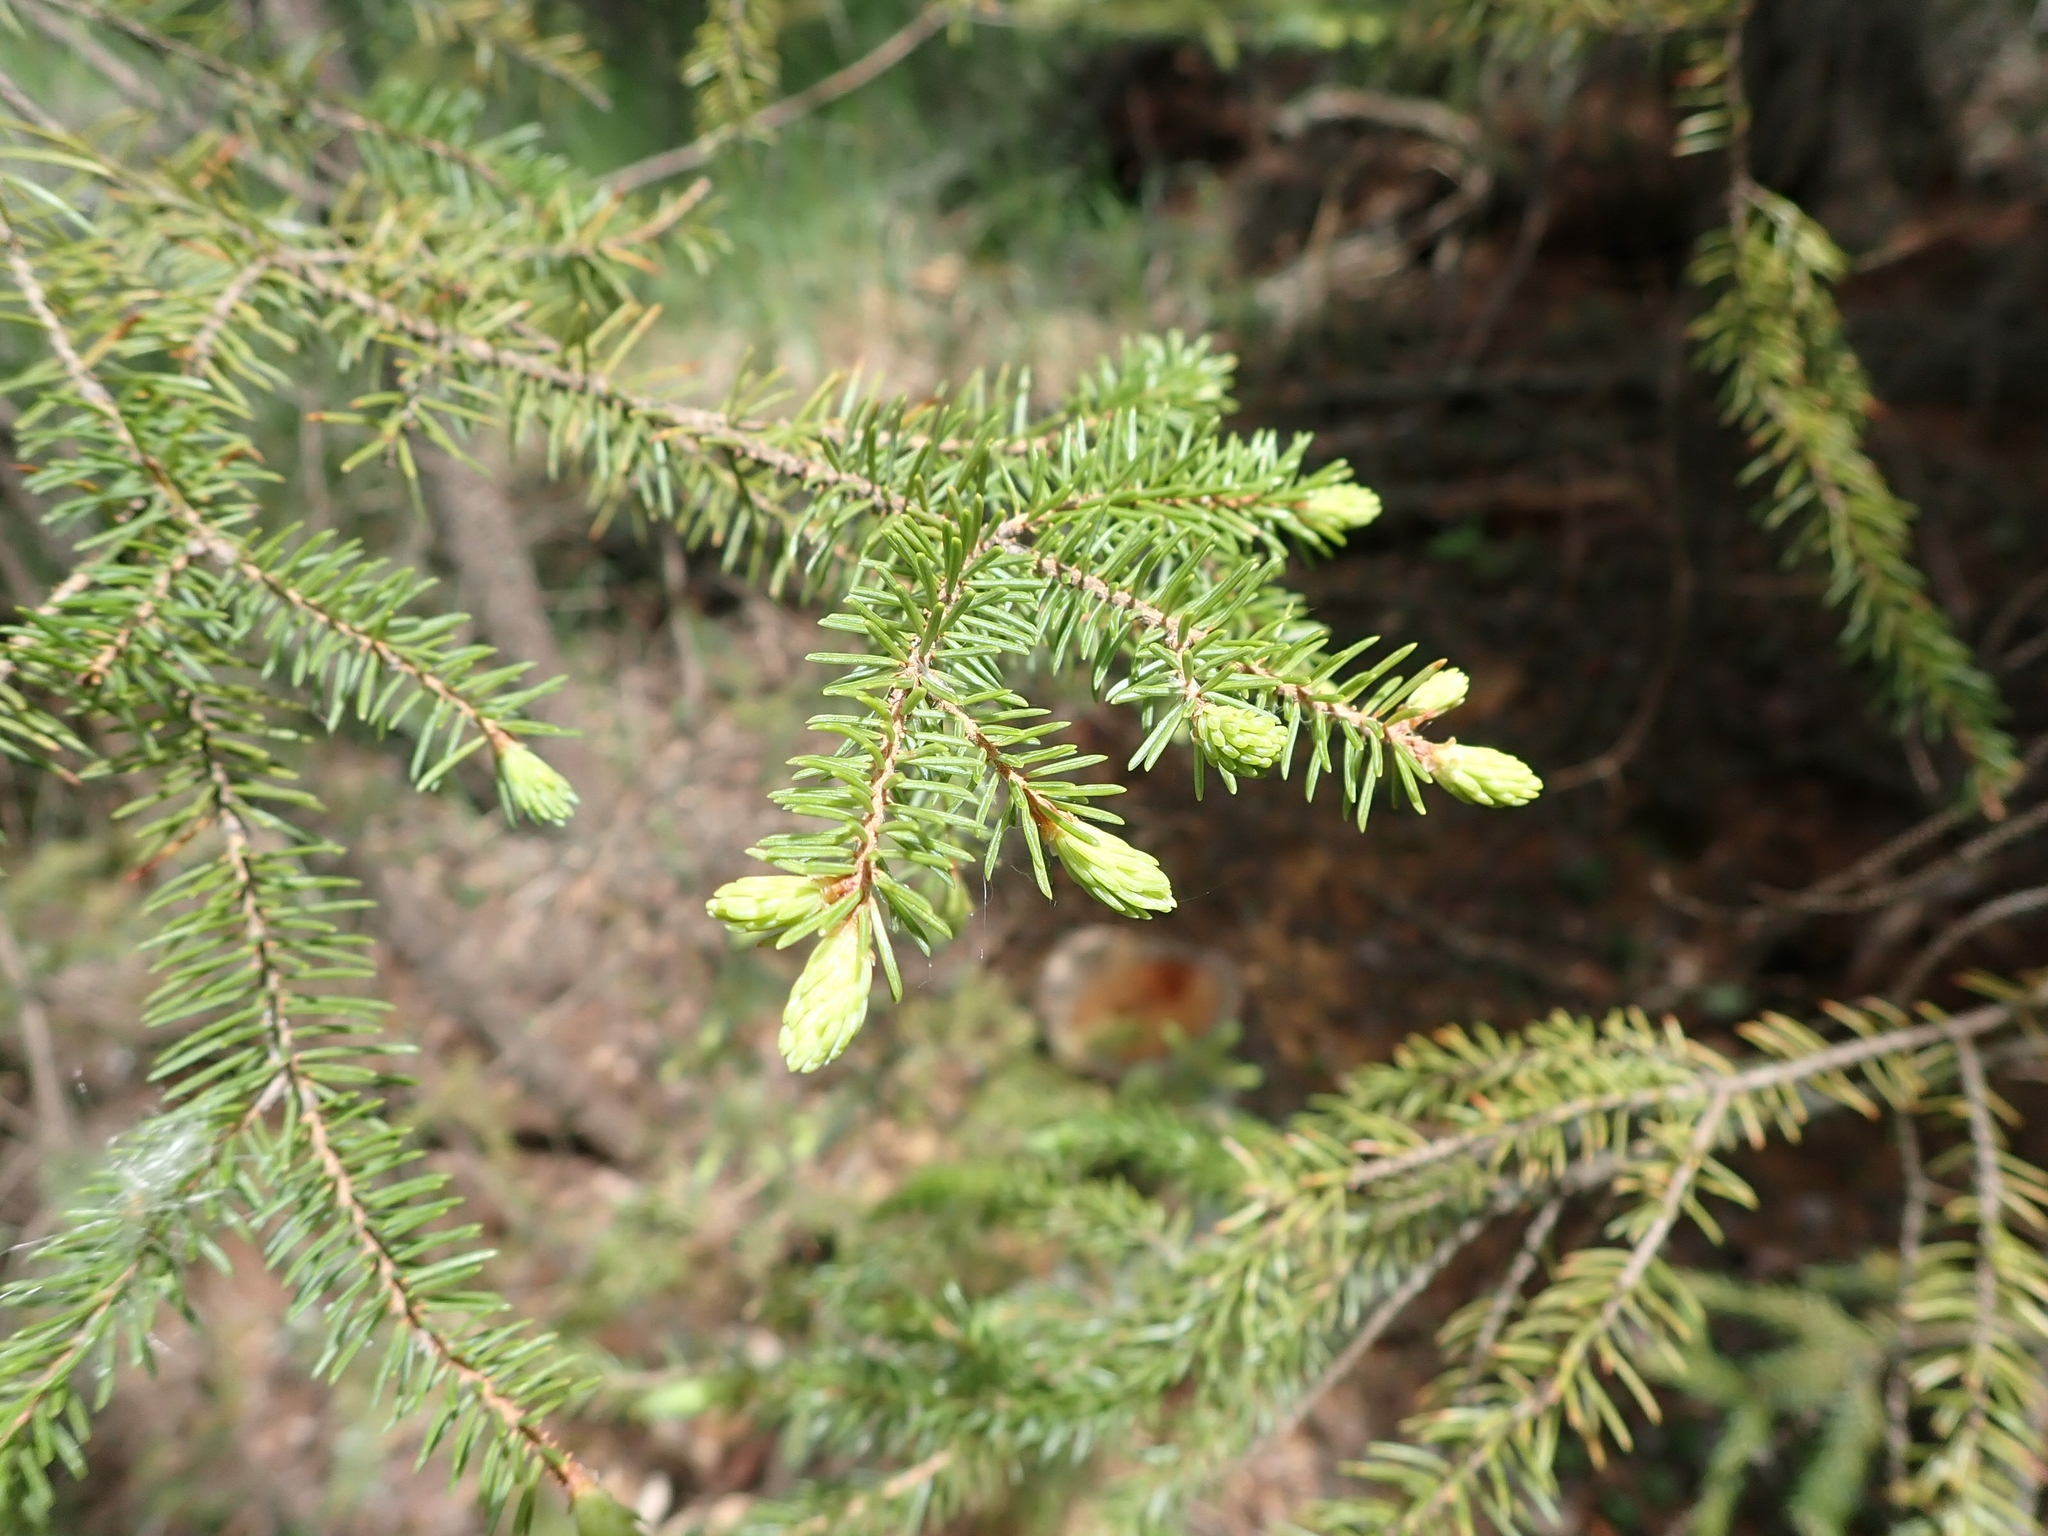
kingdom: Plantae
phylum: Tracheophyta
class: Pinopsida
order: Pinales
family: Pinaceae
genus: Picea
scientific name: Picea mariana
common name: Black spruce
